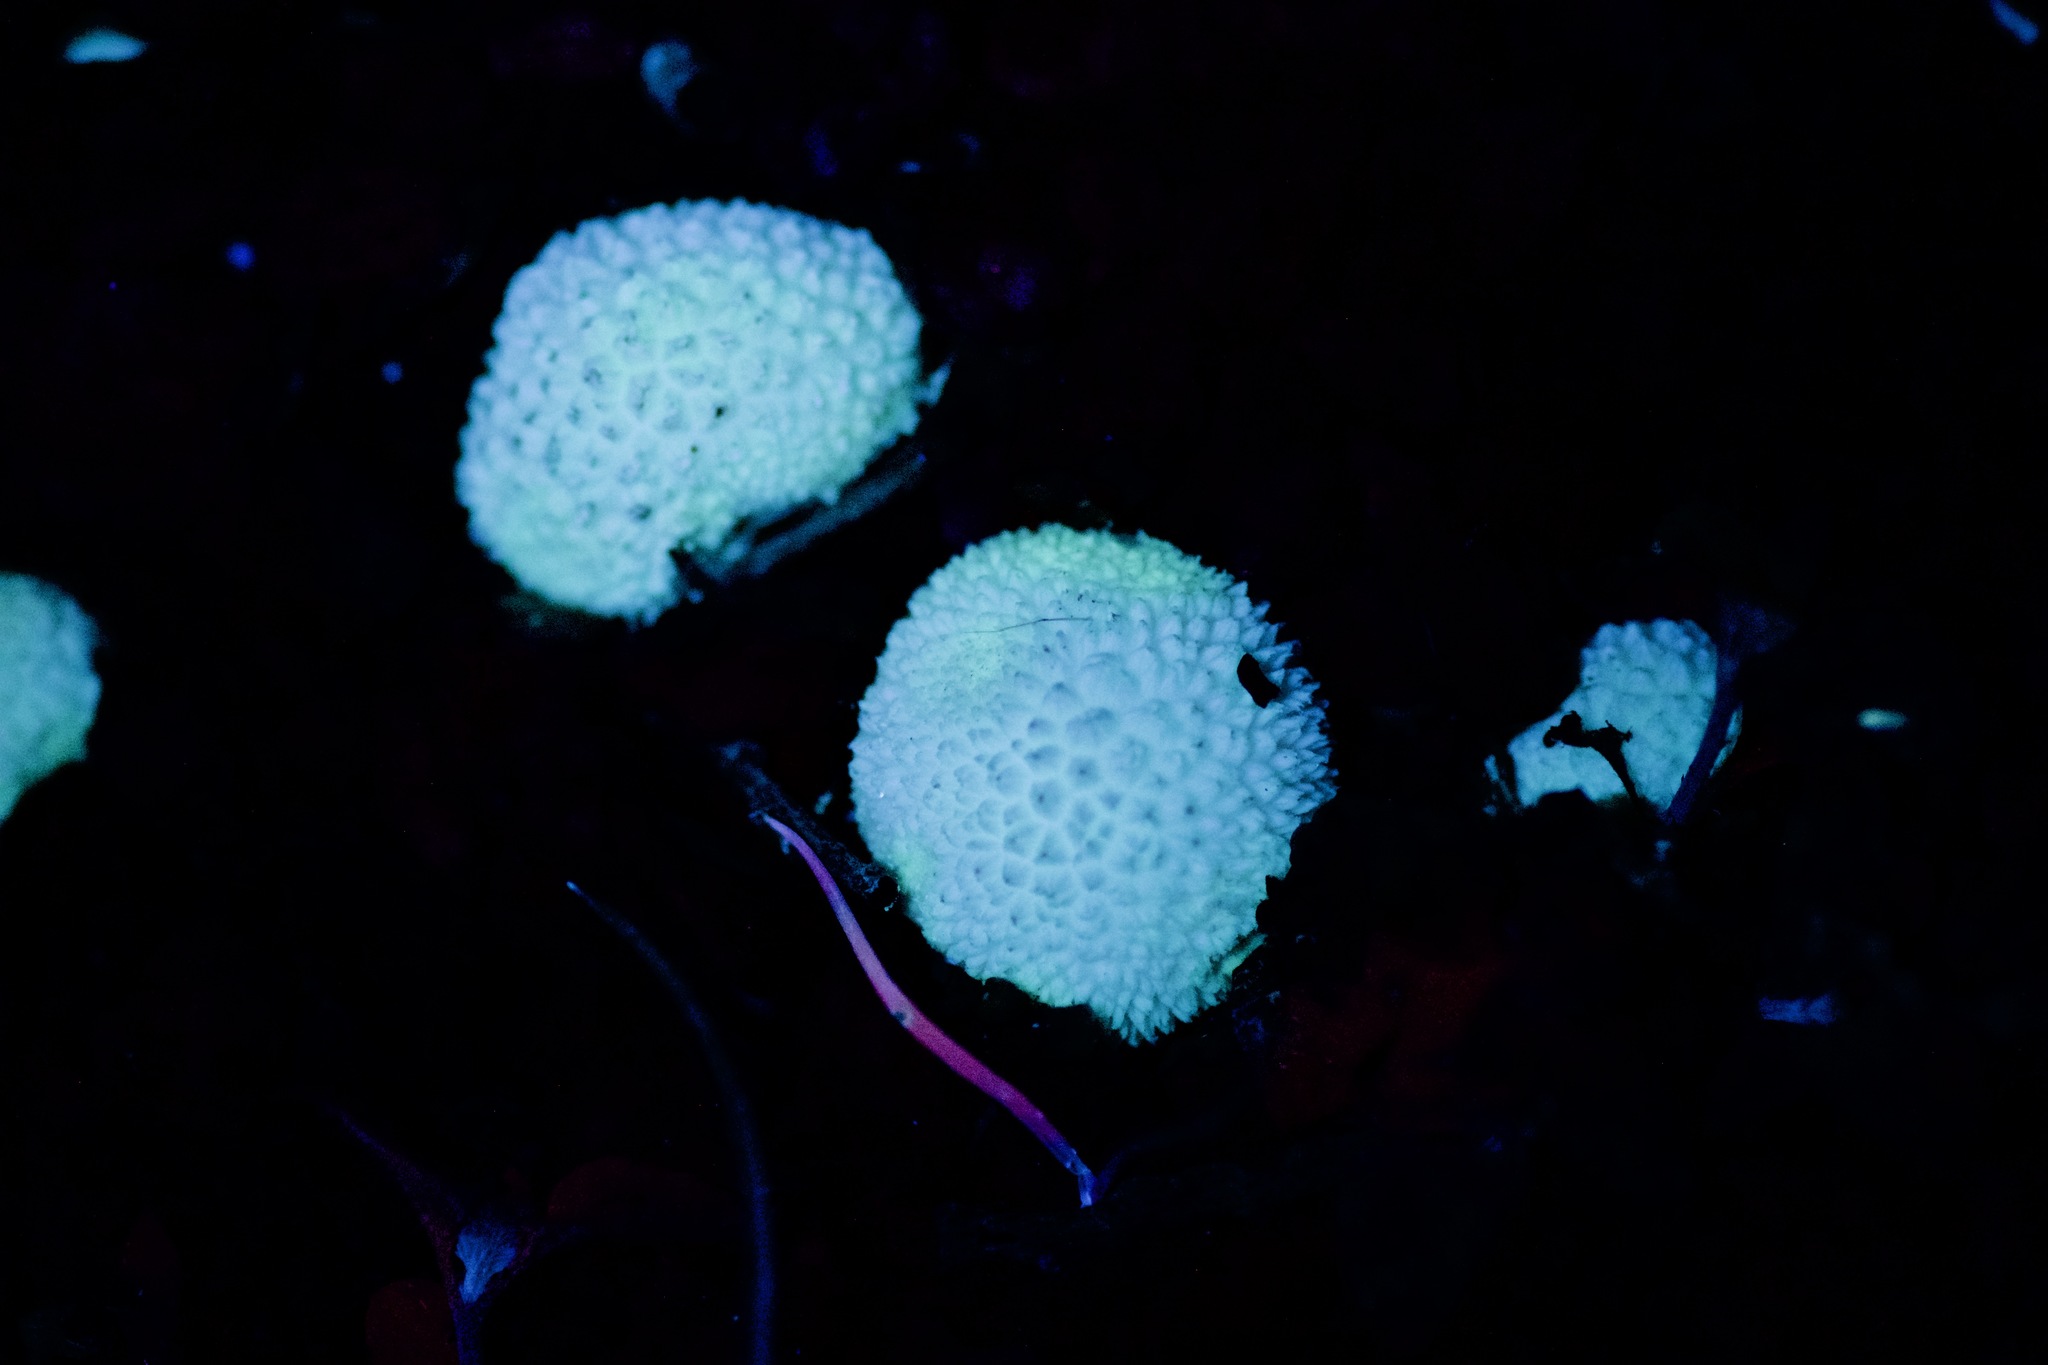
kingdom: Fungi
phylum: Basidiomycota
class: Agaricomycetes
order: Agaricales
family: Lycoperdaceae
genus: Lycoperdon
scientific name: Lycoperdon perlatum
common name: Common puffball
